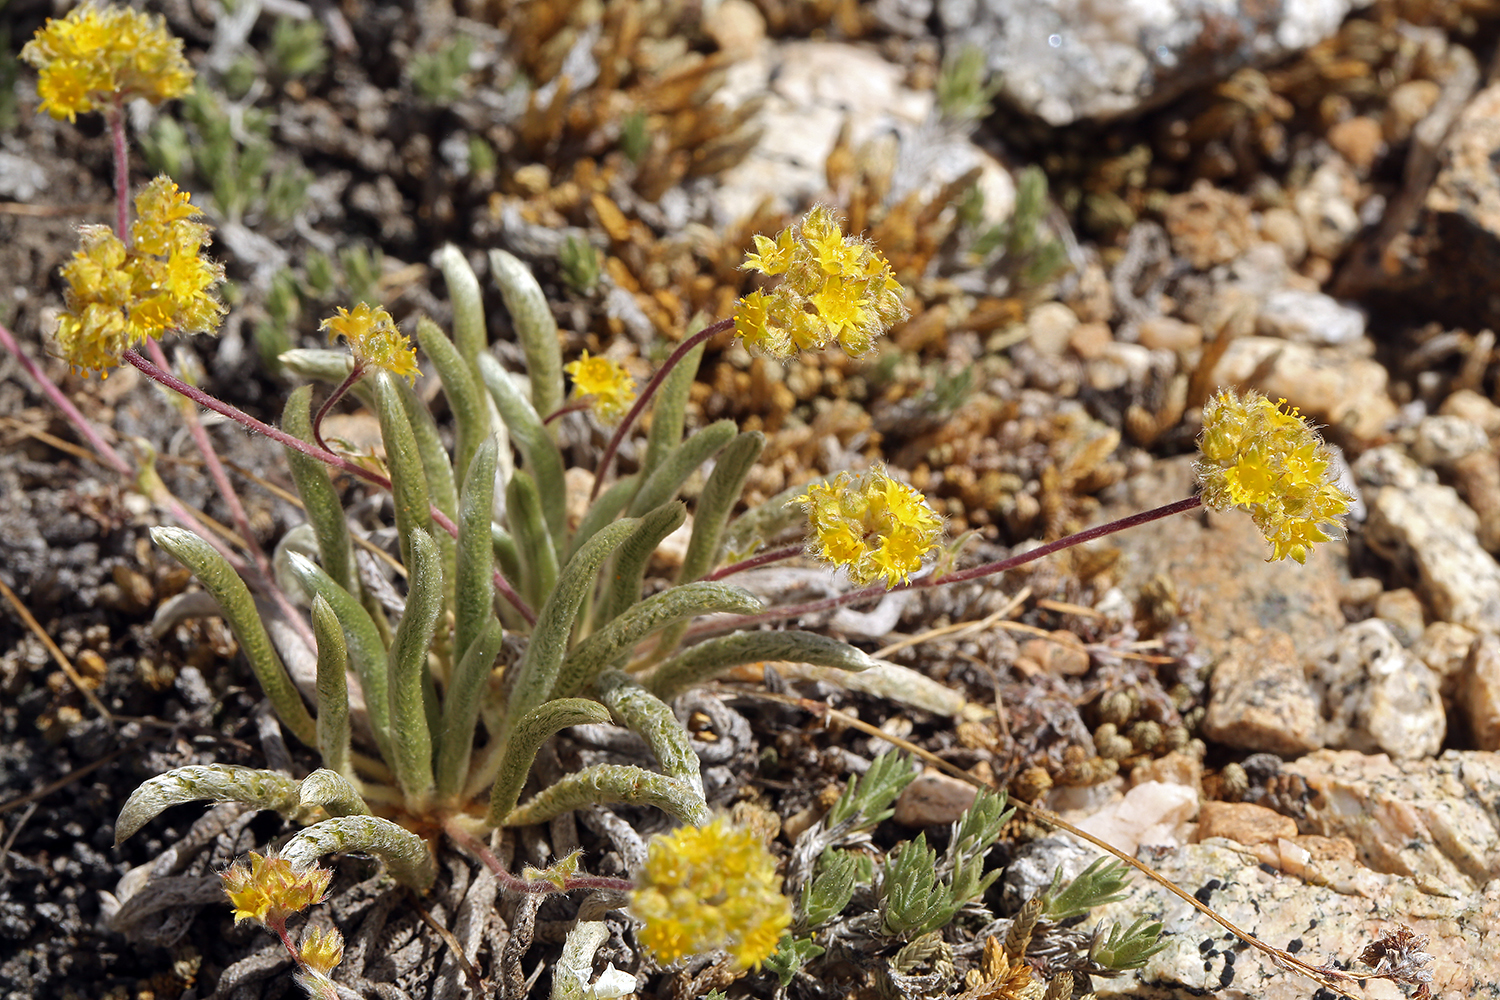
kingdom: Plantae
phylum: Tracheophyta
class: Magnoliopsida
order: Rosales
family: Rosaceae
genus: Potentilla
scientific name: Potentilla muirii
